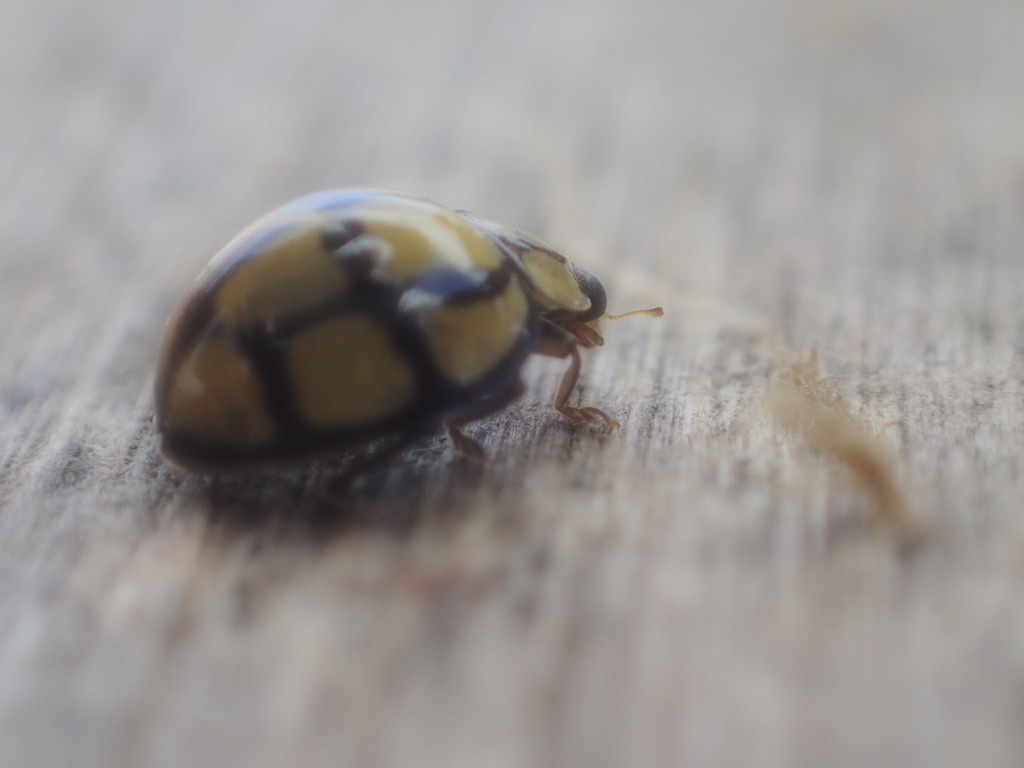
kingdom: Animalia
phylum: Arthropoda
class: Insecta
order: Coleoptera
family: Coccinellidae
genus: Harmonia
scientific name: Harmonia
